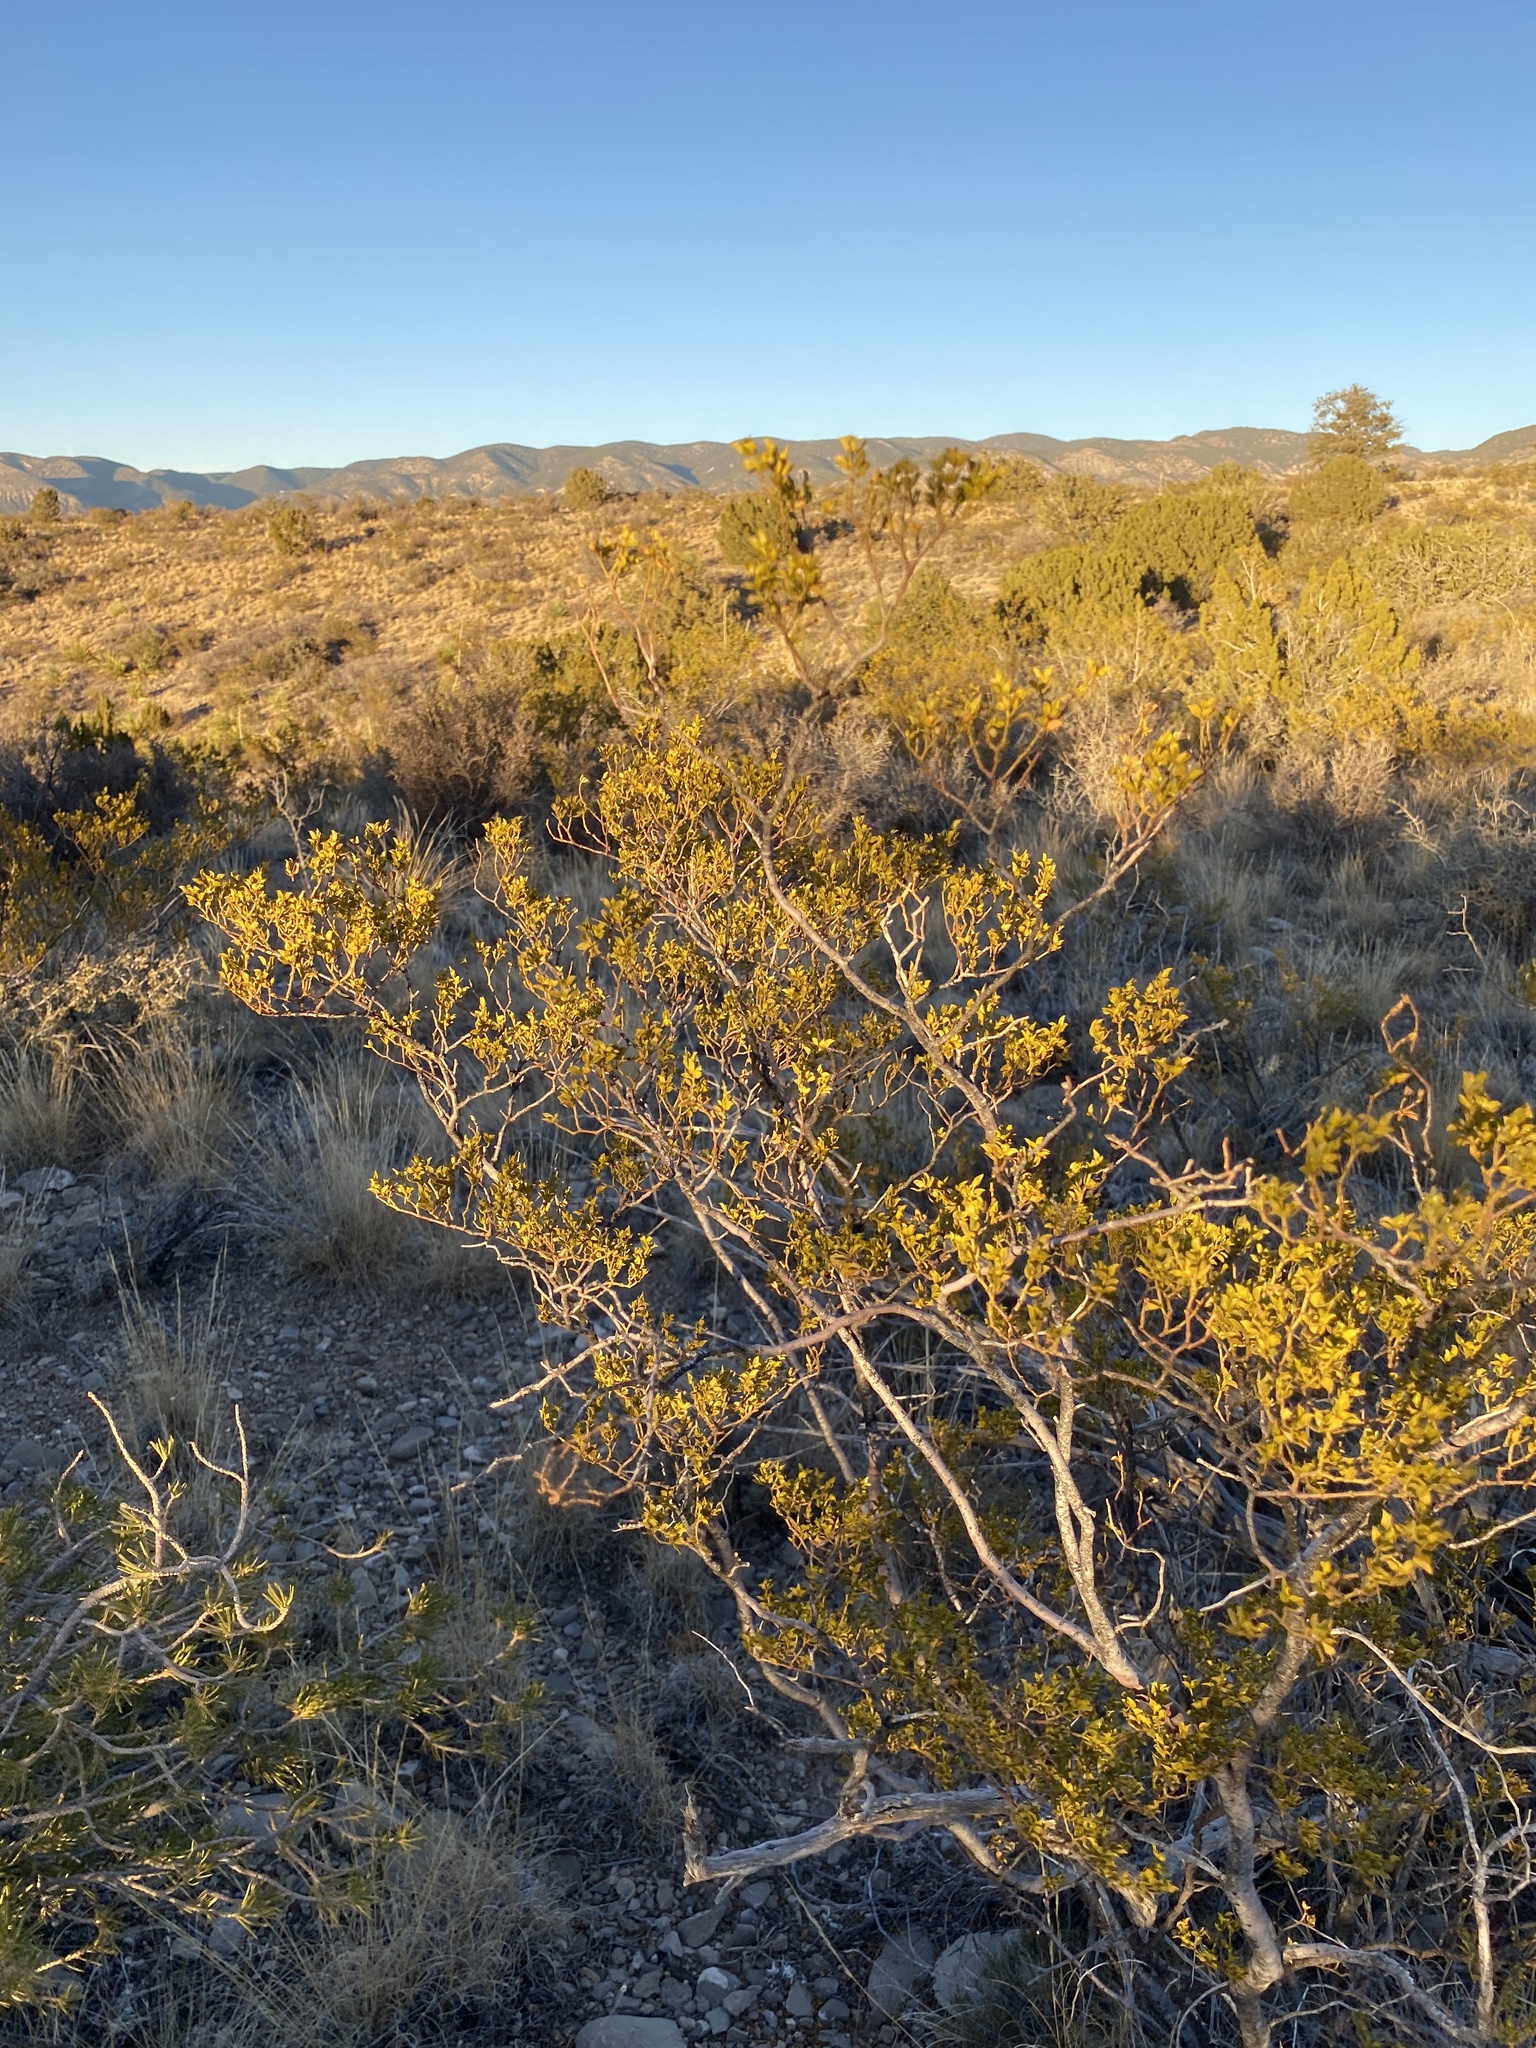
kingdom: Plantae
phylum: Tracheophyta
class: Magnoliopsida
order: Zygophyllales
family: Zygophyllaceae
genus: Larrea
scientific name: Larrea tridentata
